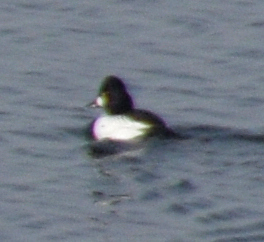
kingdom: Animalia
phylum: Chordata
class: Aves
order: Anseriformes
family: Anatidae
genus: Bucephala
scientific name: Bucephala clangula
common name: Common goldeneye
